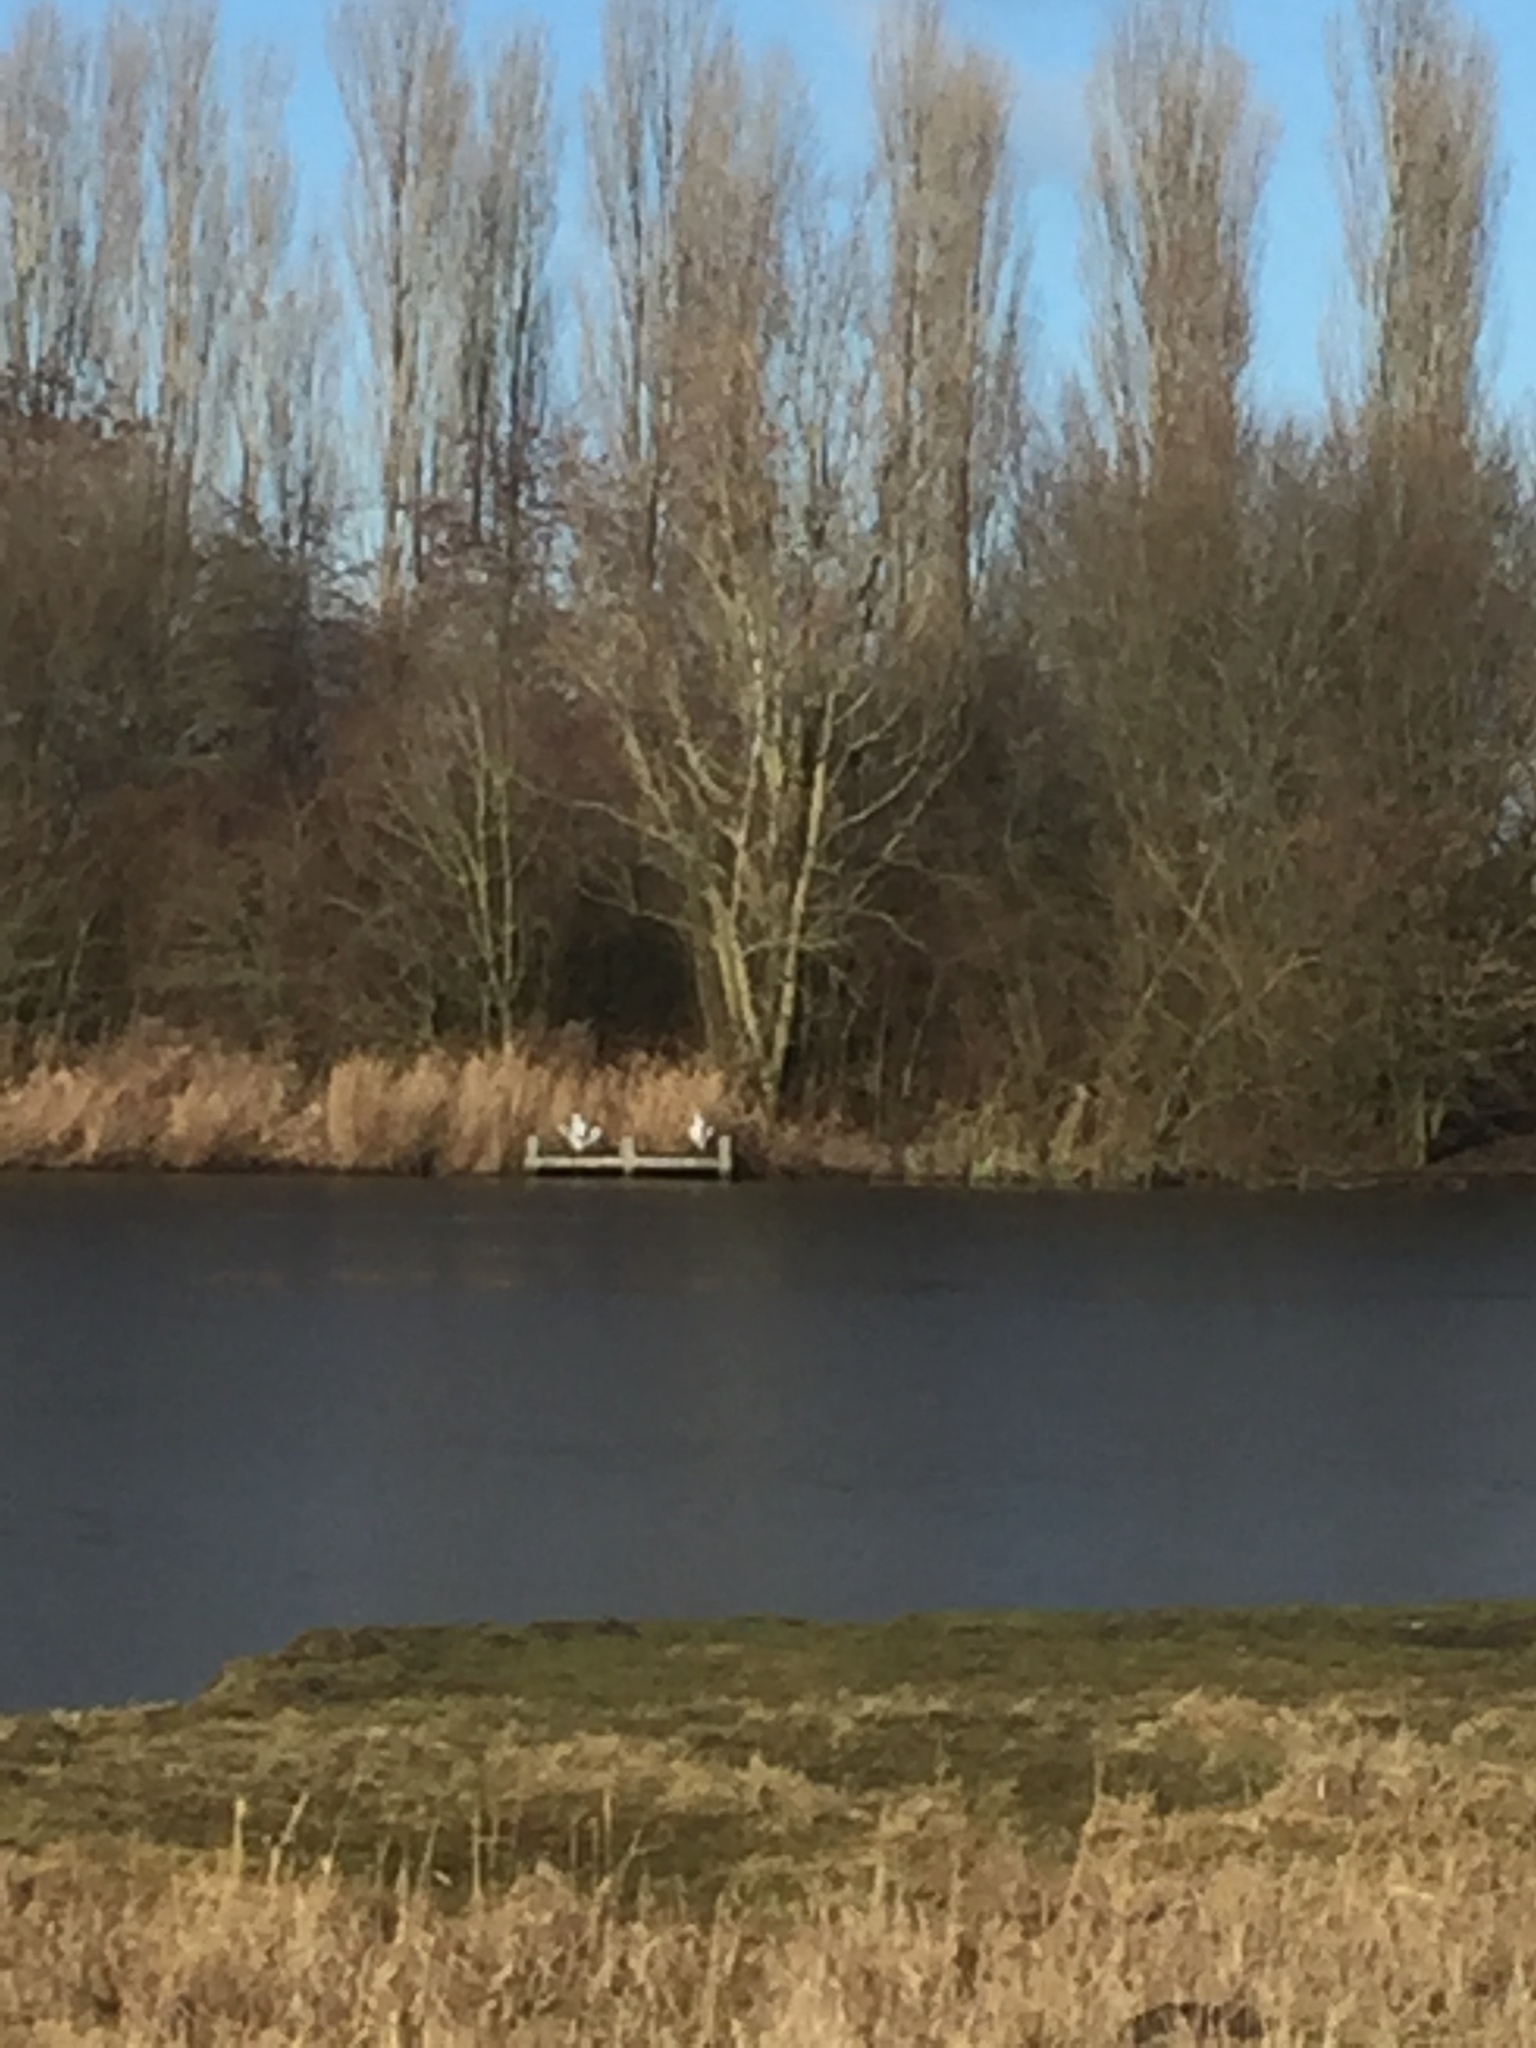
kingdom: Animalia
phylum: Chordata
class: Aves
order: Pelecaniformes
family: Ardeidae
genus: Ardea
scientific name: Ardea cinerea
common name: Grey heron
